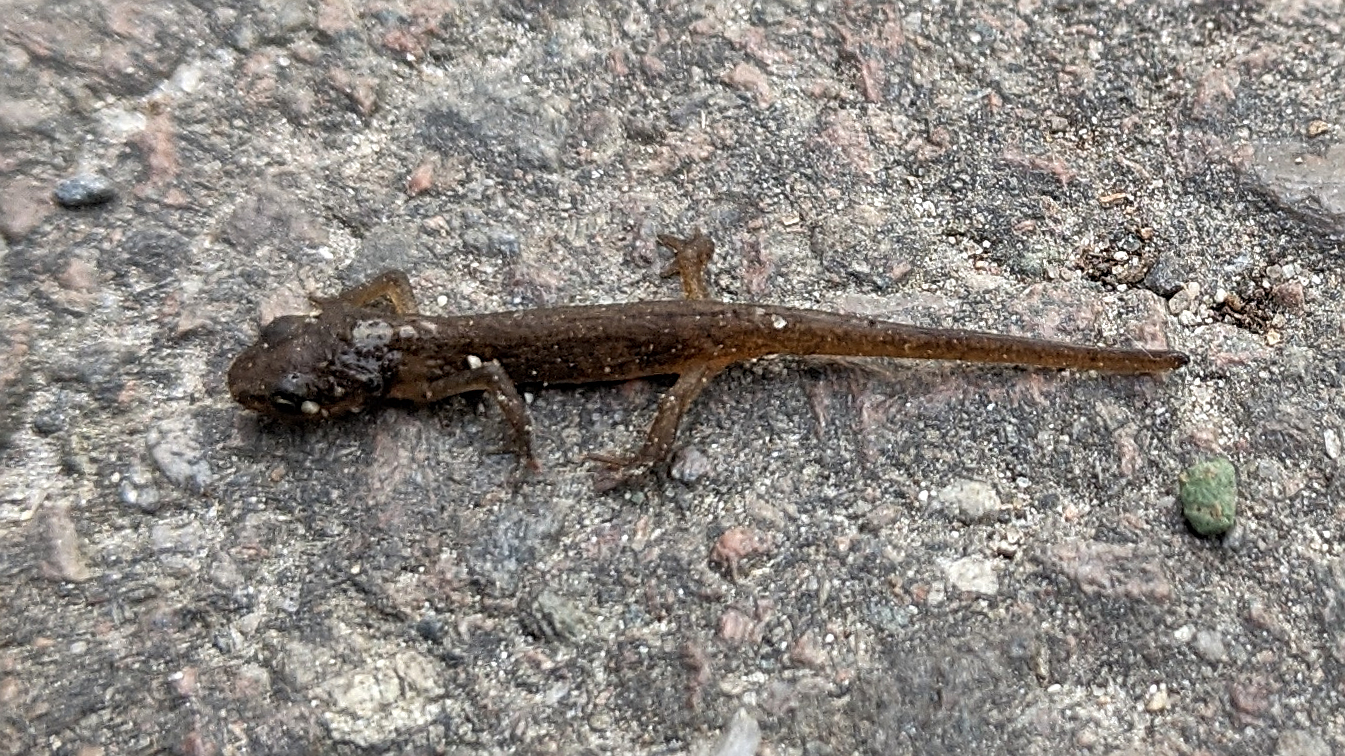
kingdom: Animalia
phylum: Chordata
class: Amphibia
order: Caudata
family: Salamandridae
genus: Lissotriton
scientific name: Lissotriton vulgaris
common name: Smooth newt
